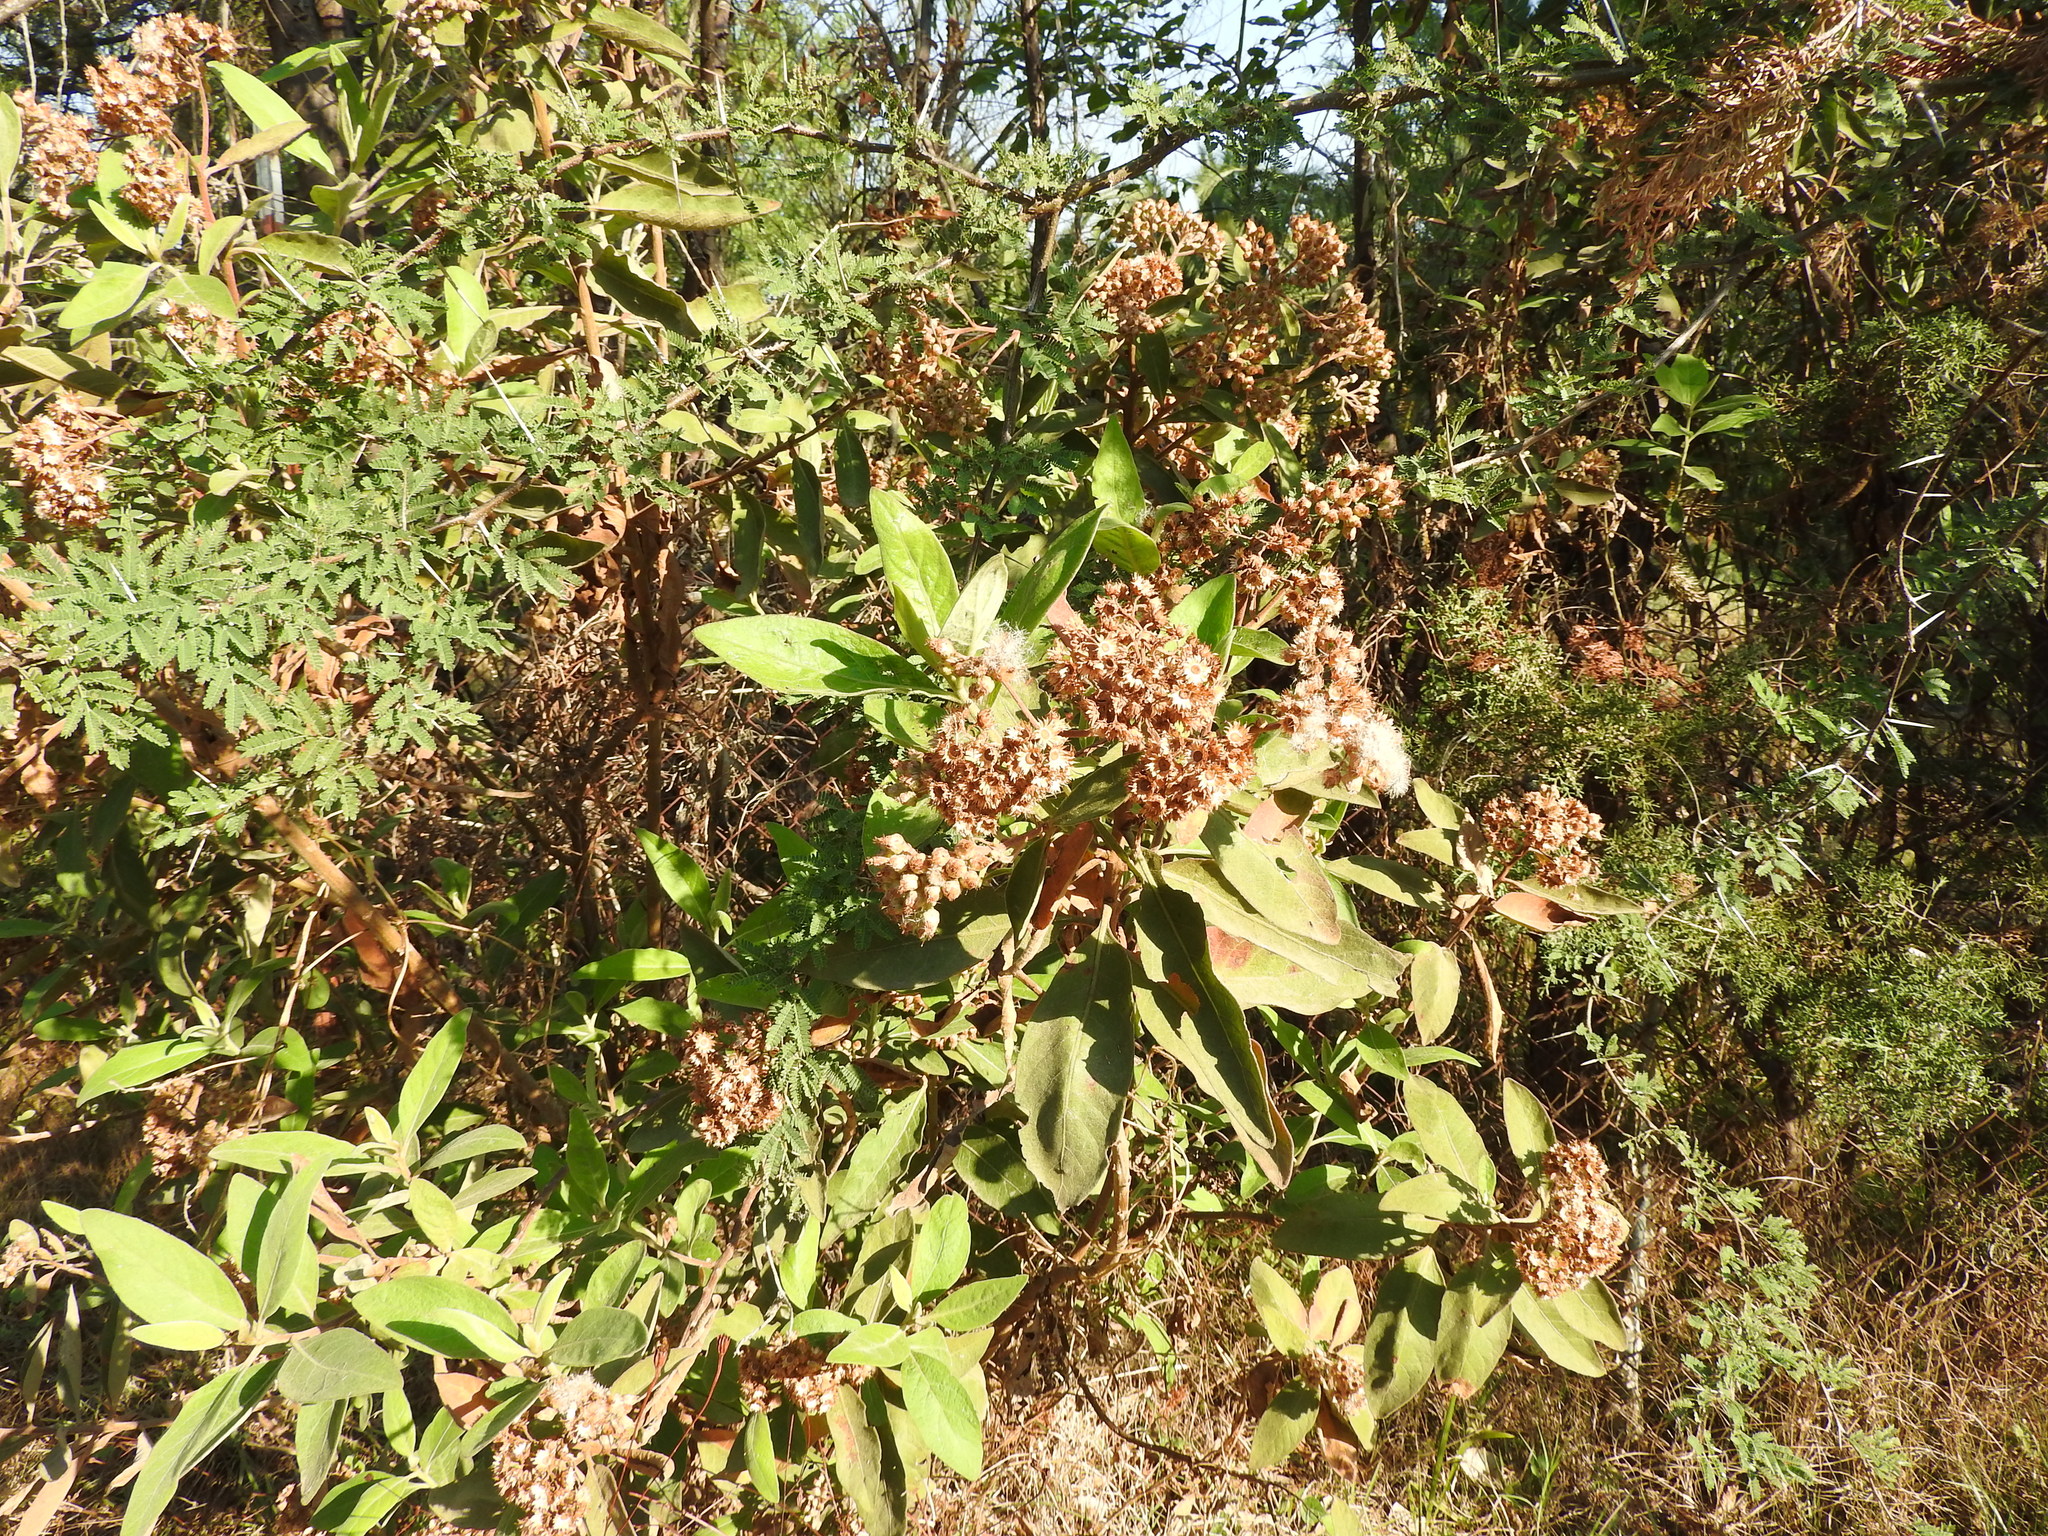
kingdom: Plantae
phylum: Tracheophyta
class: Magnoliopsida
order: Lamiales
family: Scrophulariaceae
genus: Buddleja
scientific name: Buddleja cordata
